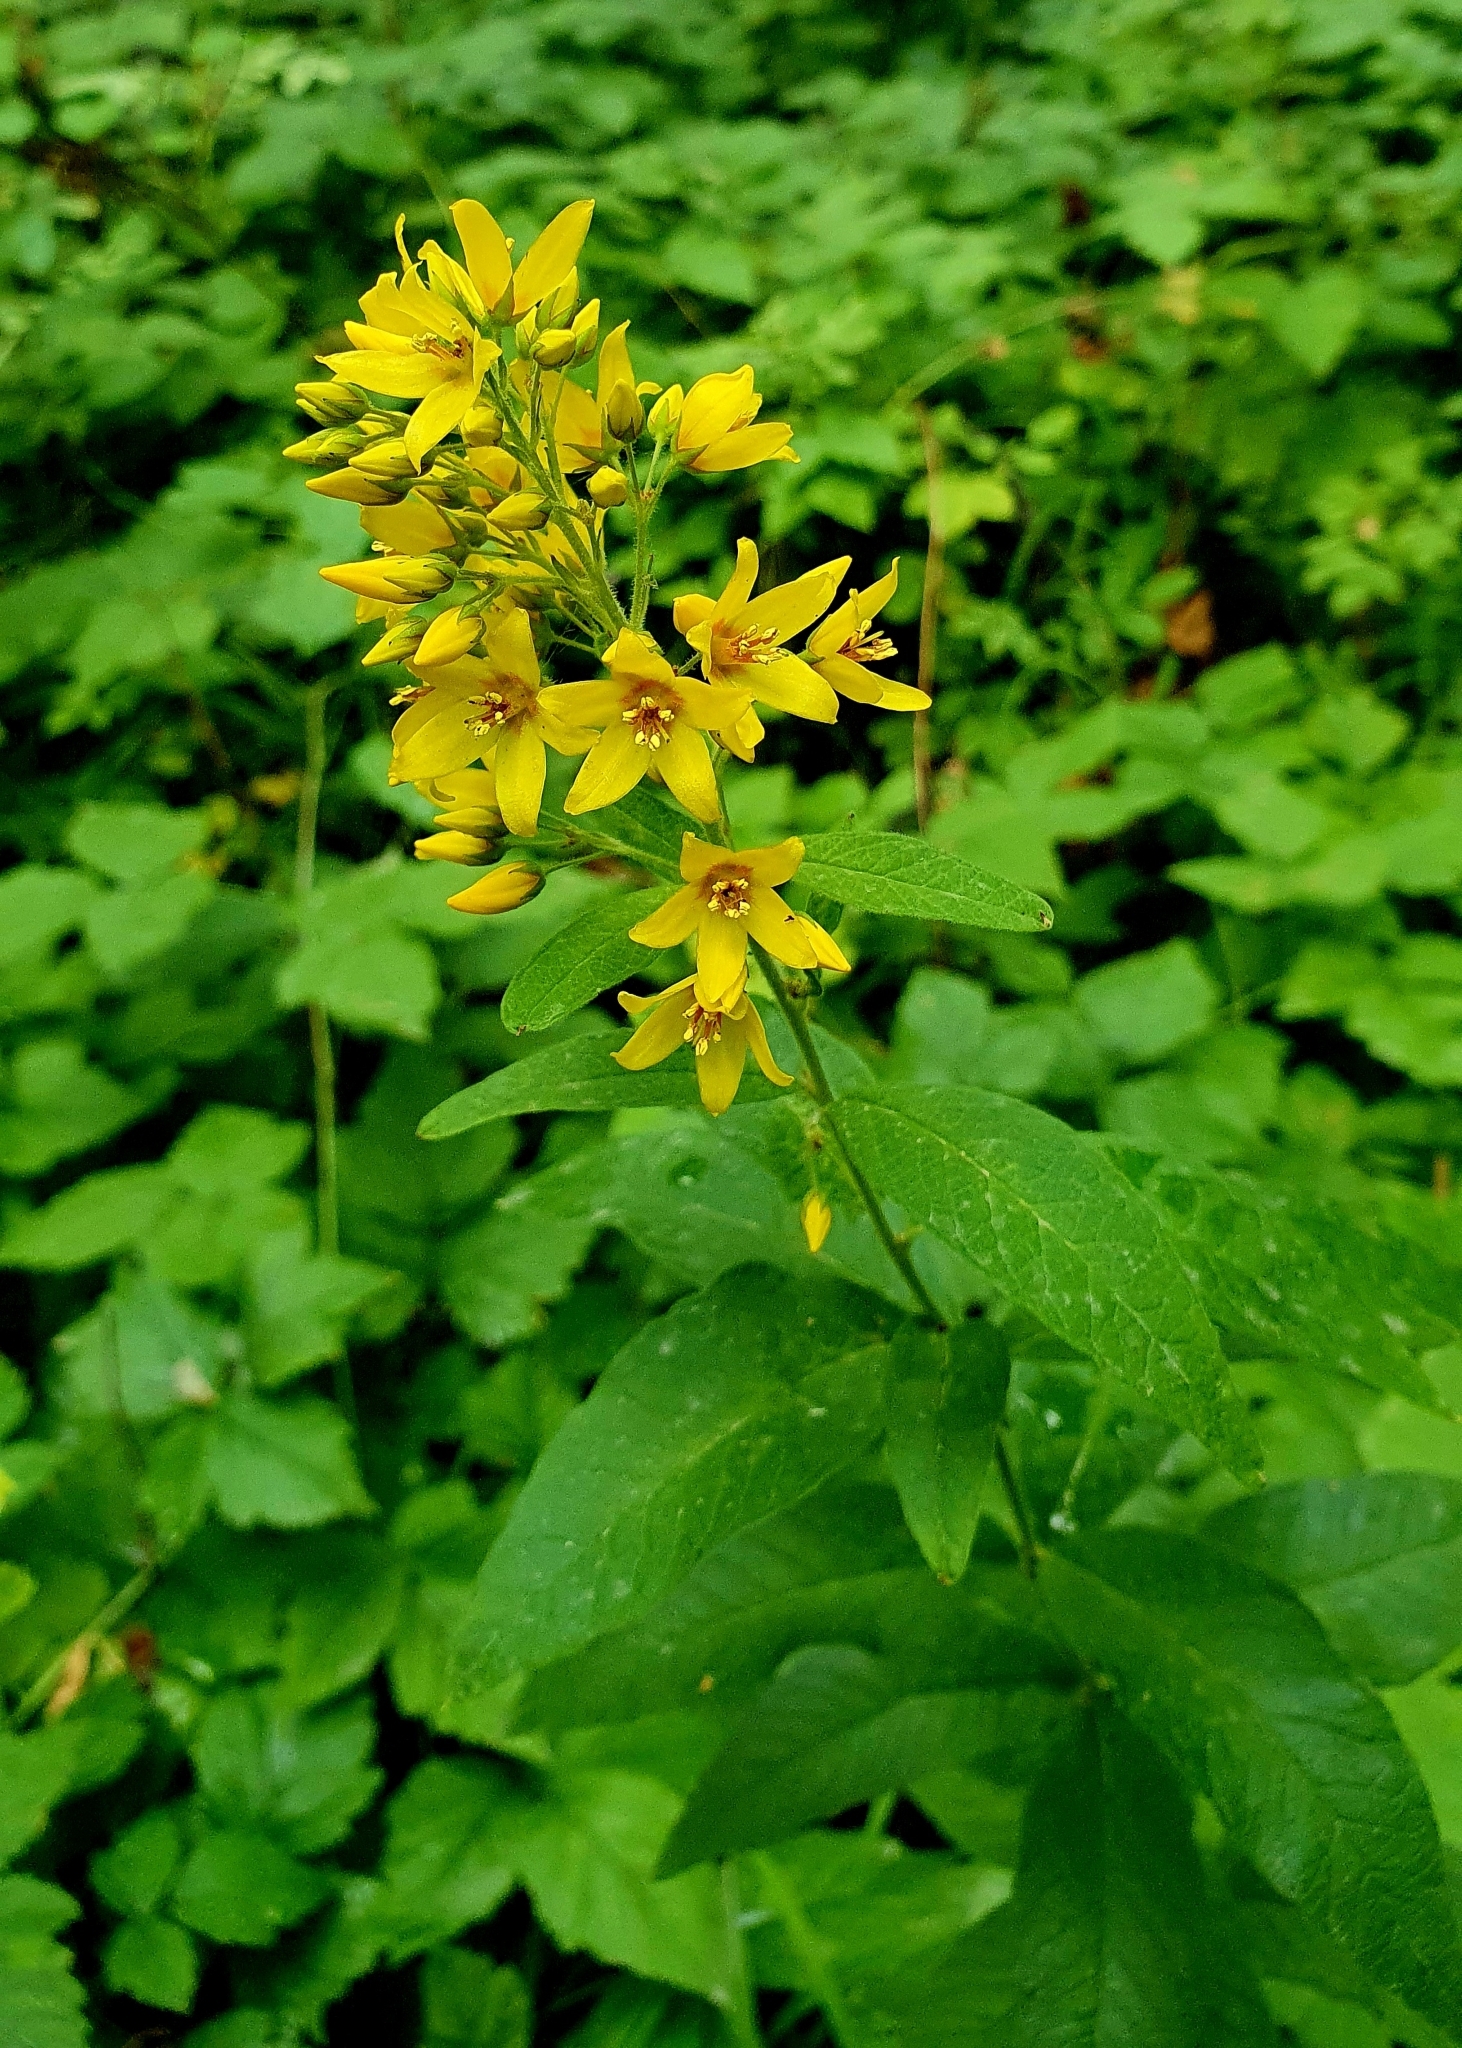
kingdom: Plantae
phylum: Tracheophyta
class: Magnoliopsida
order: Ericales
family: Primulaceae
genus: Lysimachia
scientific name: Lysimachia vulgaris
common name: Yellow loosestrife
